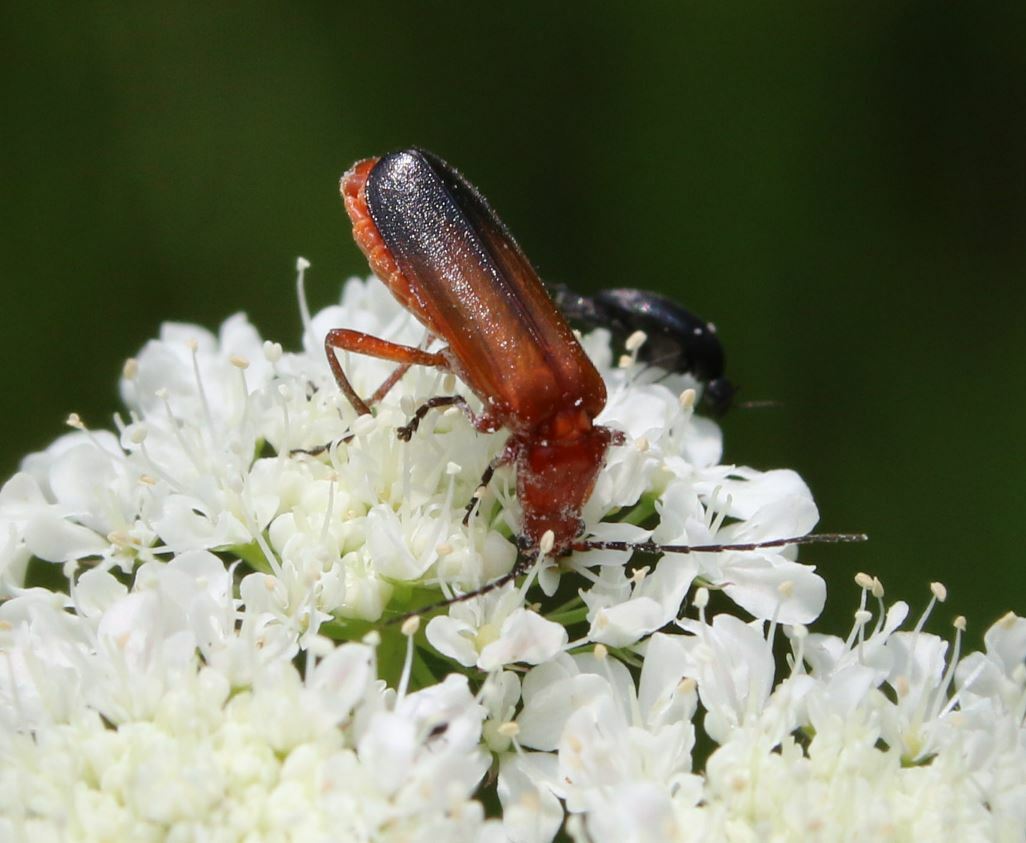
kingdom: Animalia
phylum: Arthropoda
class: Insecta
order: Coleoptera
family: Cantharidae
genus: Rhagonycha
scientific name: Rhagonycha fulva
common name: Common red soldier beetle
